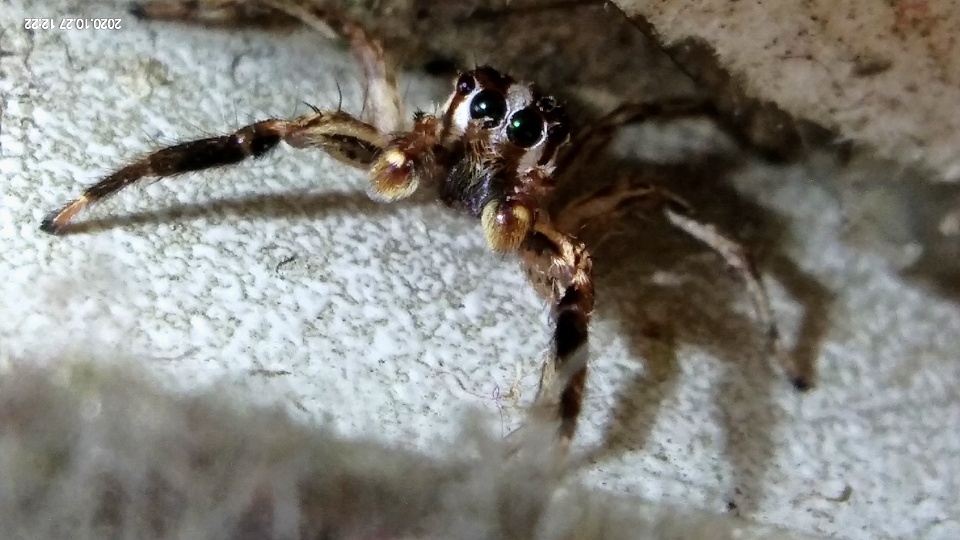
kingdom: Animalia
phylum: Arthropoda
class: Arachnida
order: Araneae
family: Salticidae
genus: Plexippus
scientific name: Plexippus paykulli
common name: Pantropical jumper
